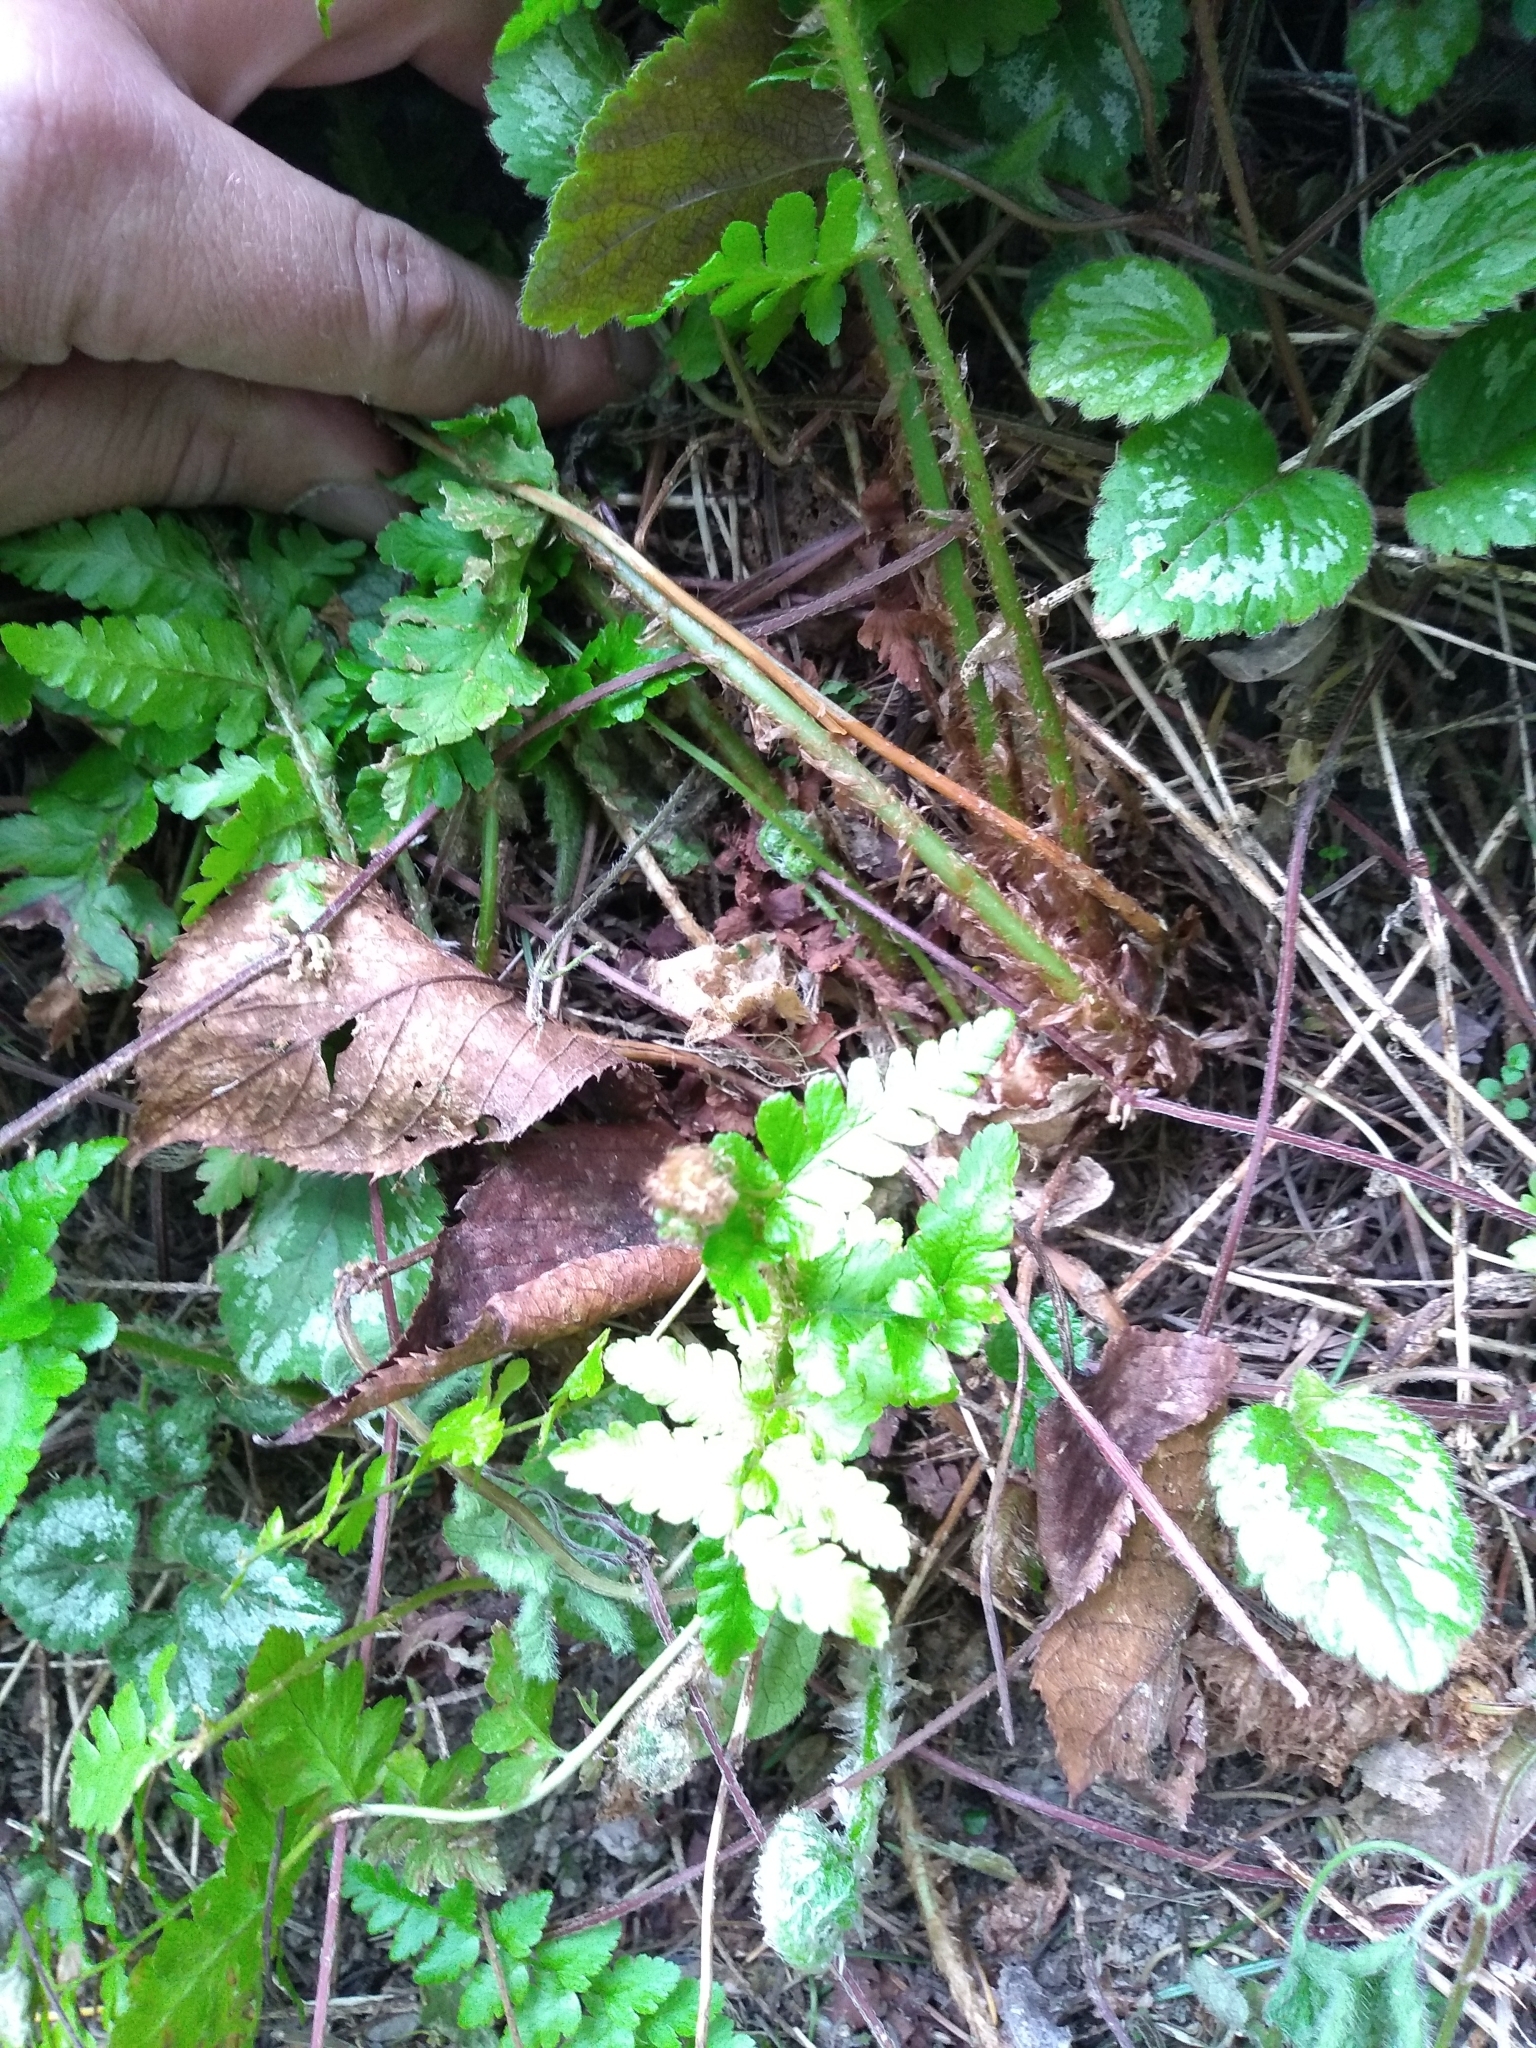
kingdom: Plantae
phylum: Tracheophyta
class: Polypodiopsida
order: Polypodiales
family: Dryopteridaceae
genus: Dryopteris
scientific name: Dryopteris filix-mas
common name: Male fern
